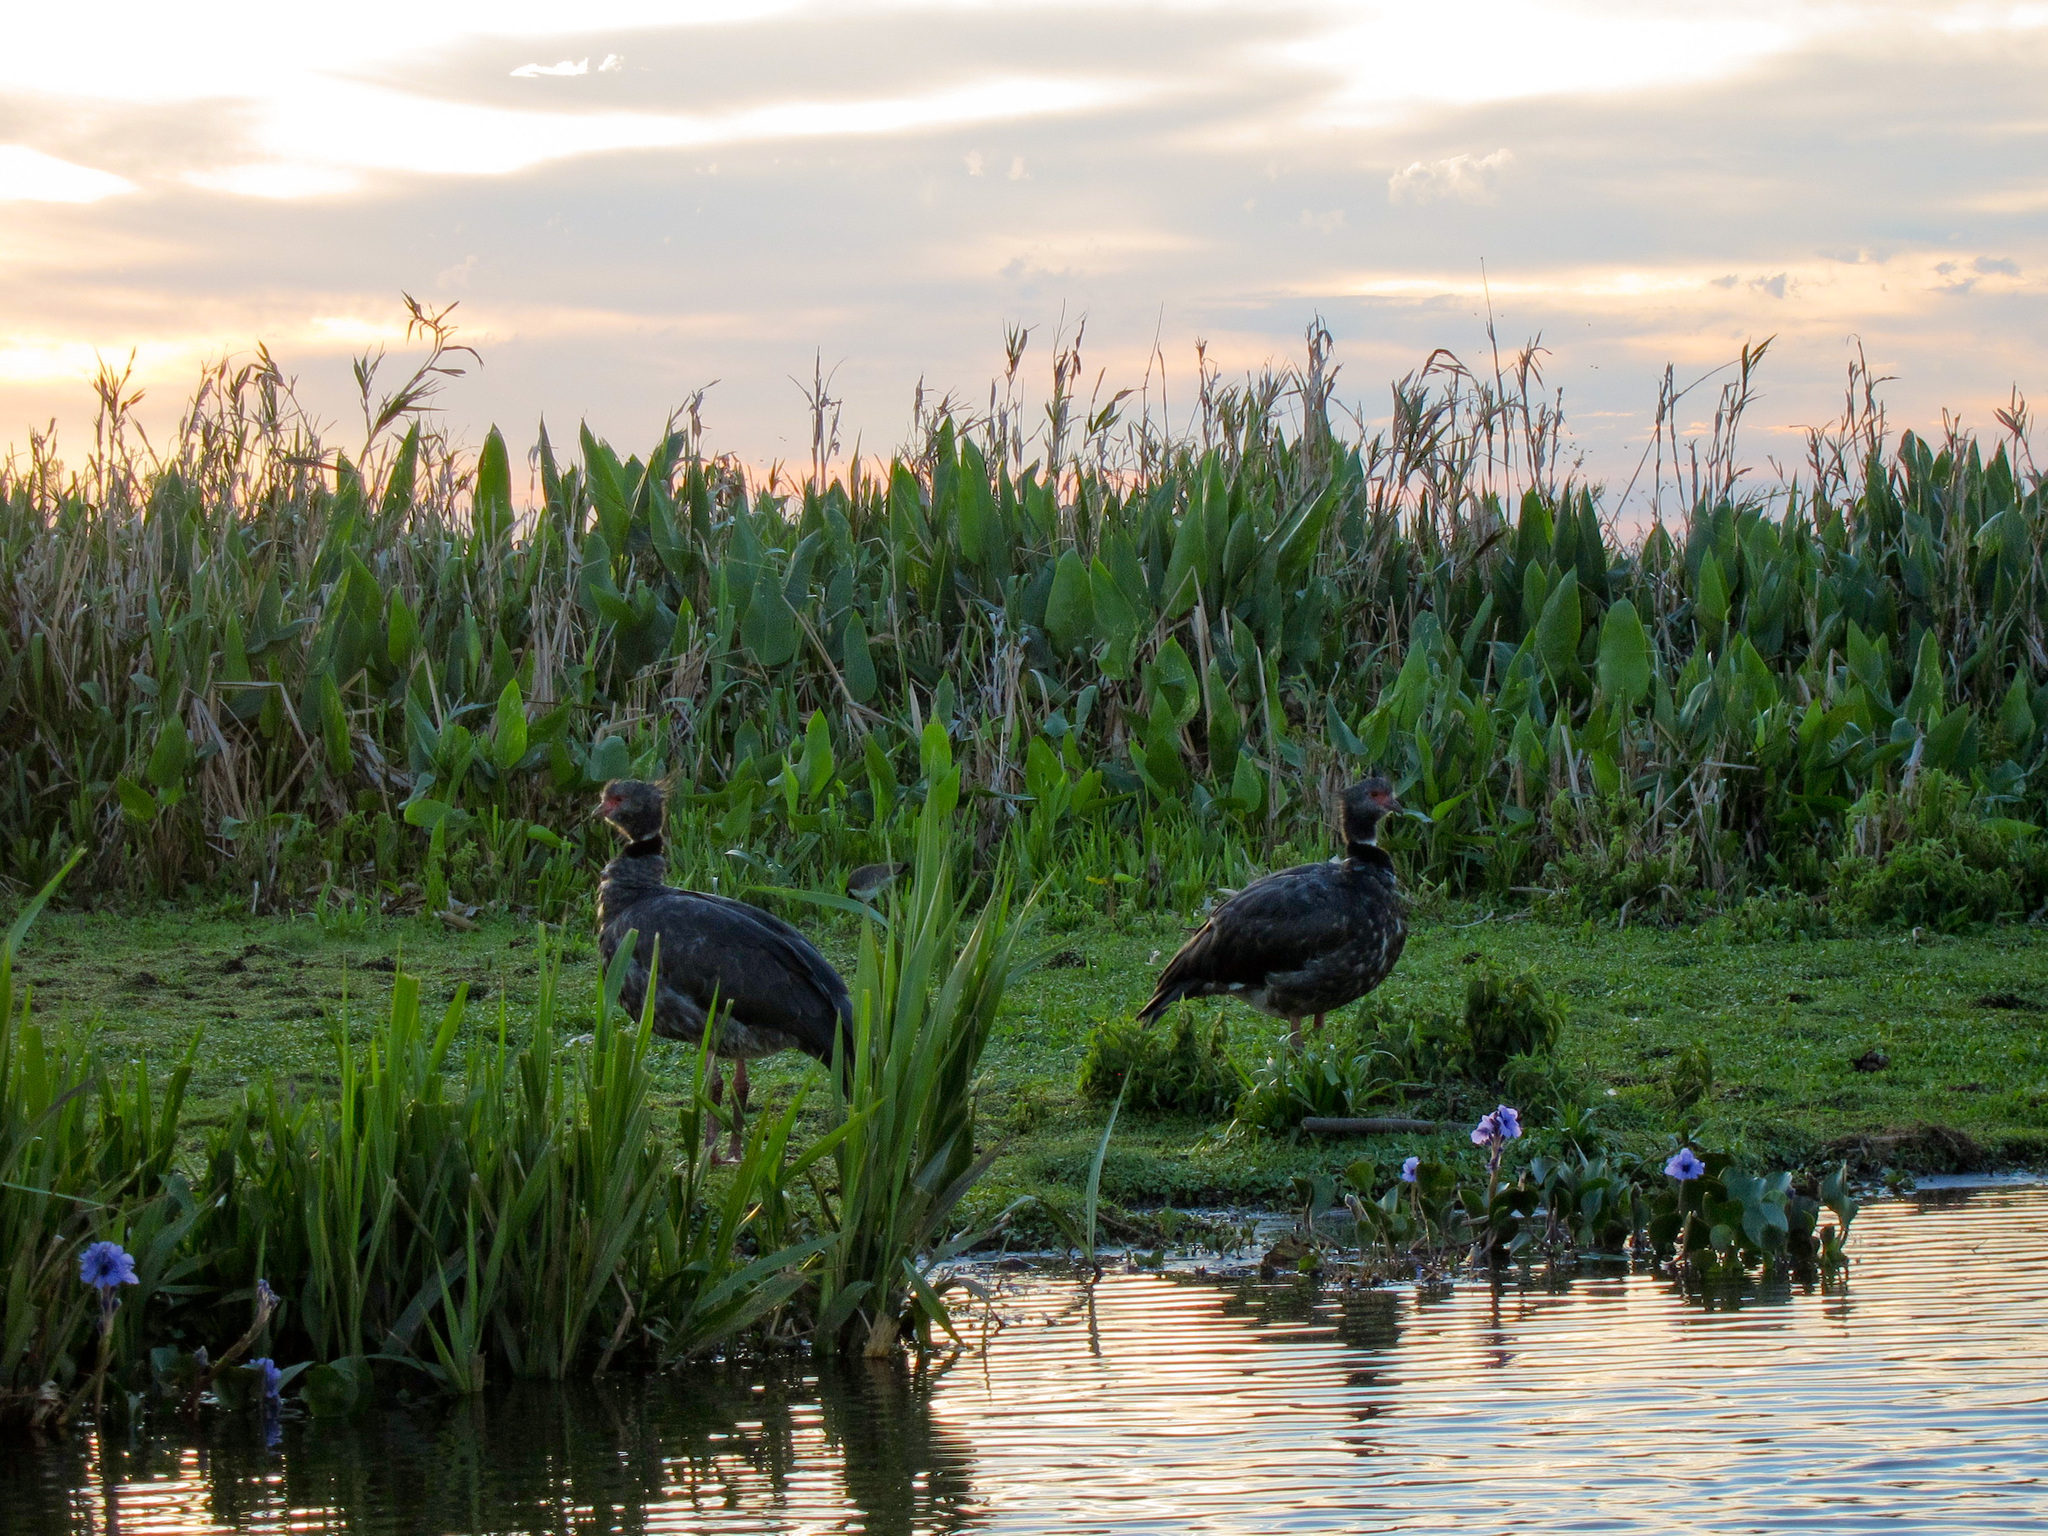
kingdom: Animalia
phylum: Chordata
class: Aves
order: Anseriformes
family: Anhimidae
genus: Chauna
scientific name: Chauna torquata
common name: Southern screamer
